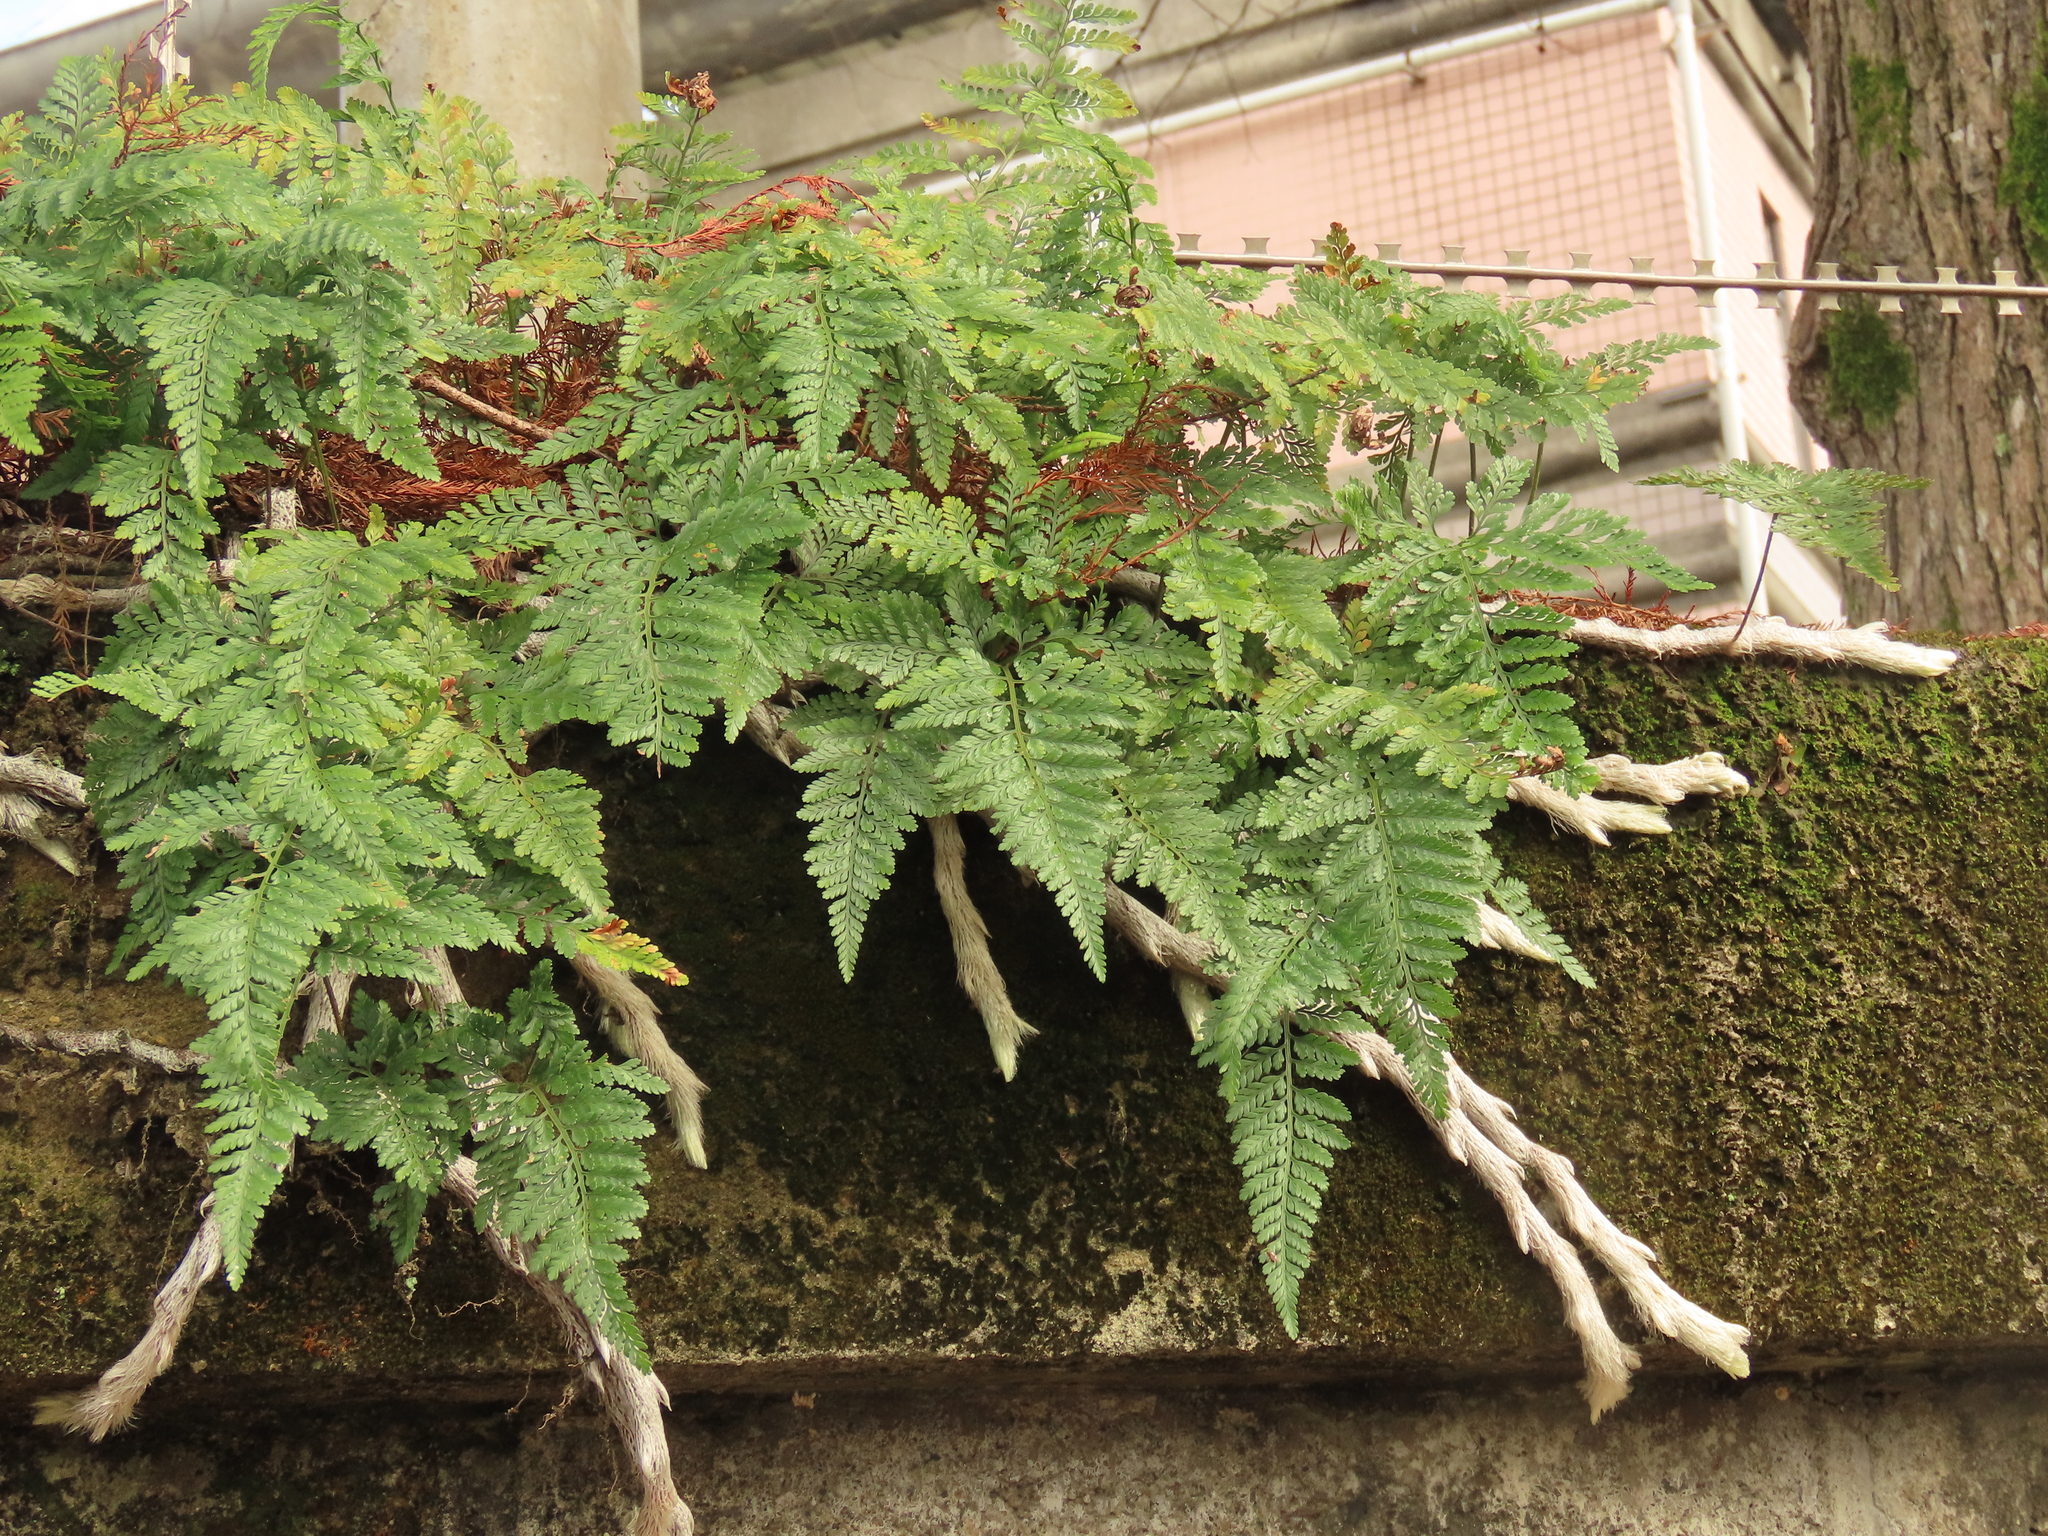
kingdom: Plantae
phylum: Tracheophyta
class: Polypodiopsida
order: Polypodiales
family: Davalliaceae
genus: Davallia
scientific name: Davallia griffithiana
